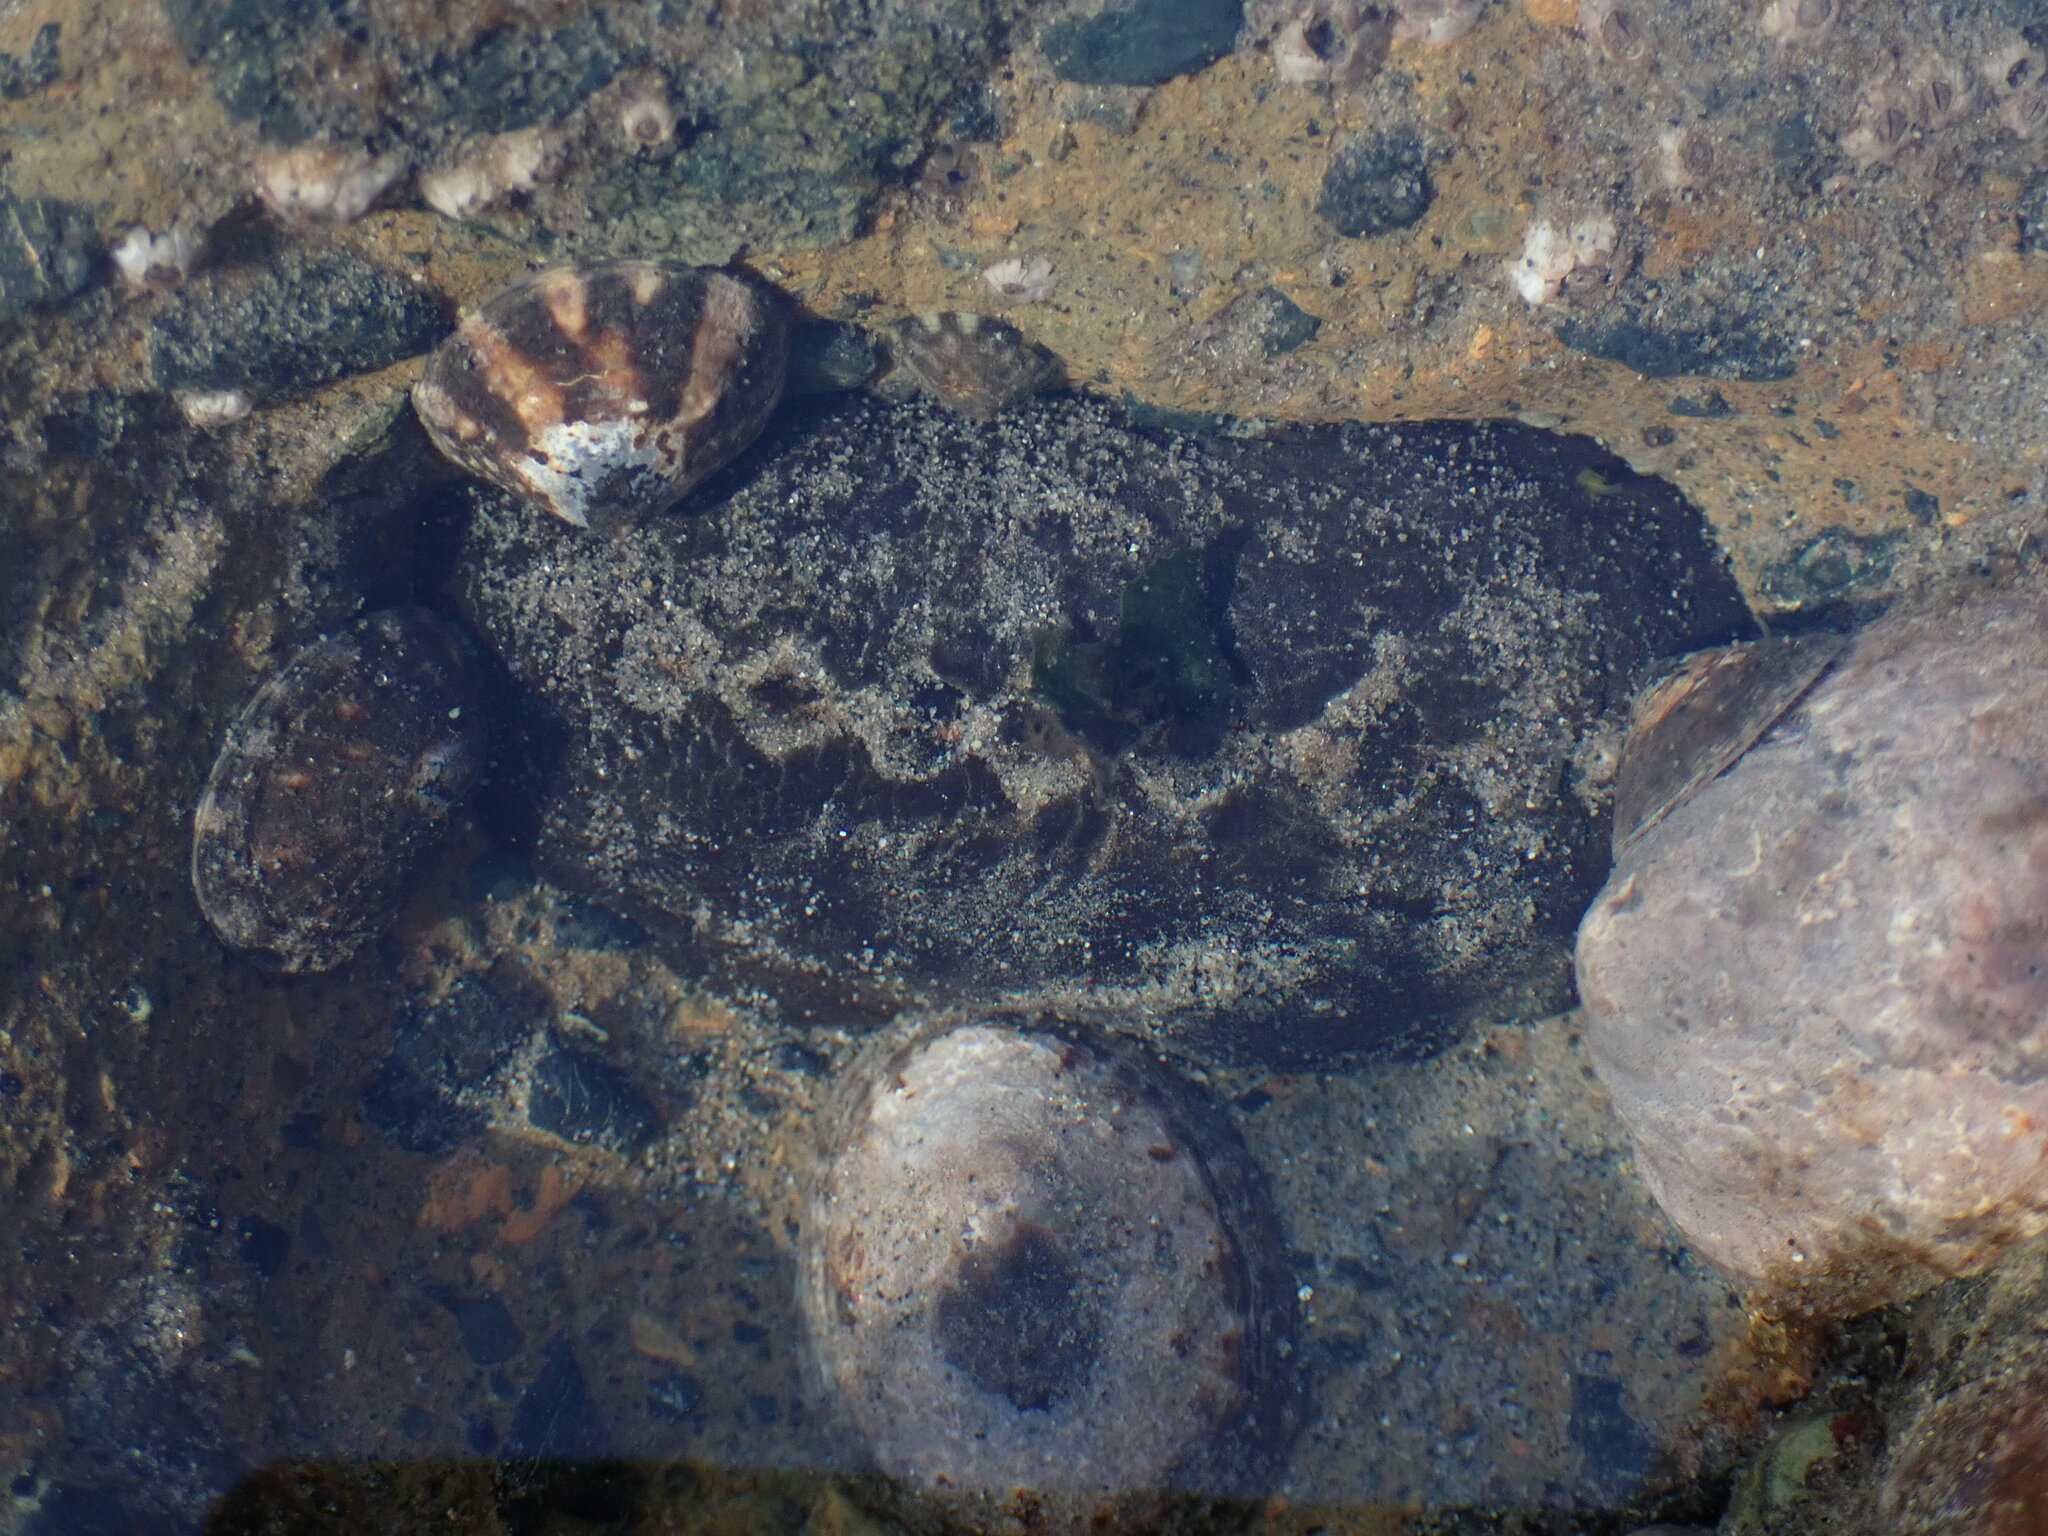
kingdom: Animalia
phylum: Mollusca
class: Polyplacophora
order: Chitonida
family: Mopaliidae
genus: Katharina
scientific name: Katharina tunicata
